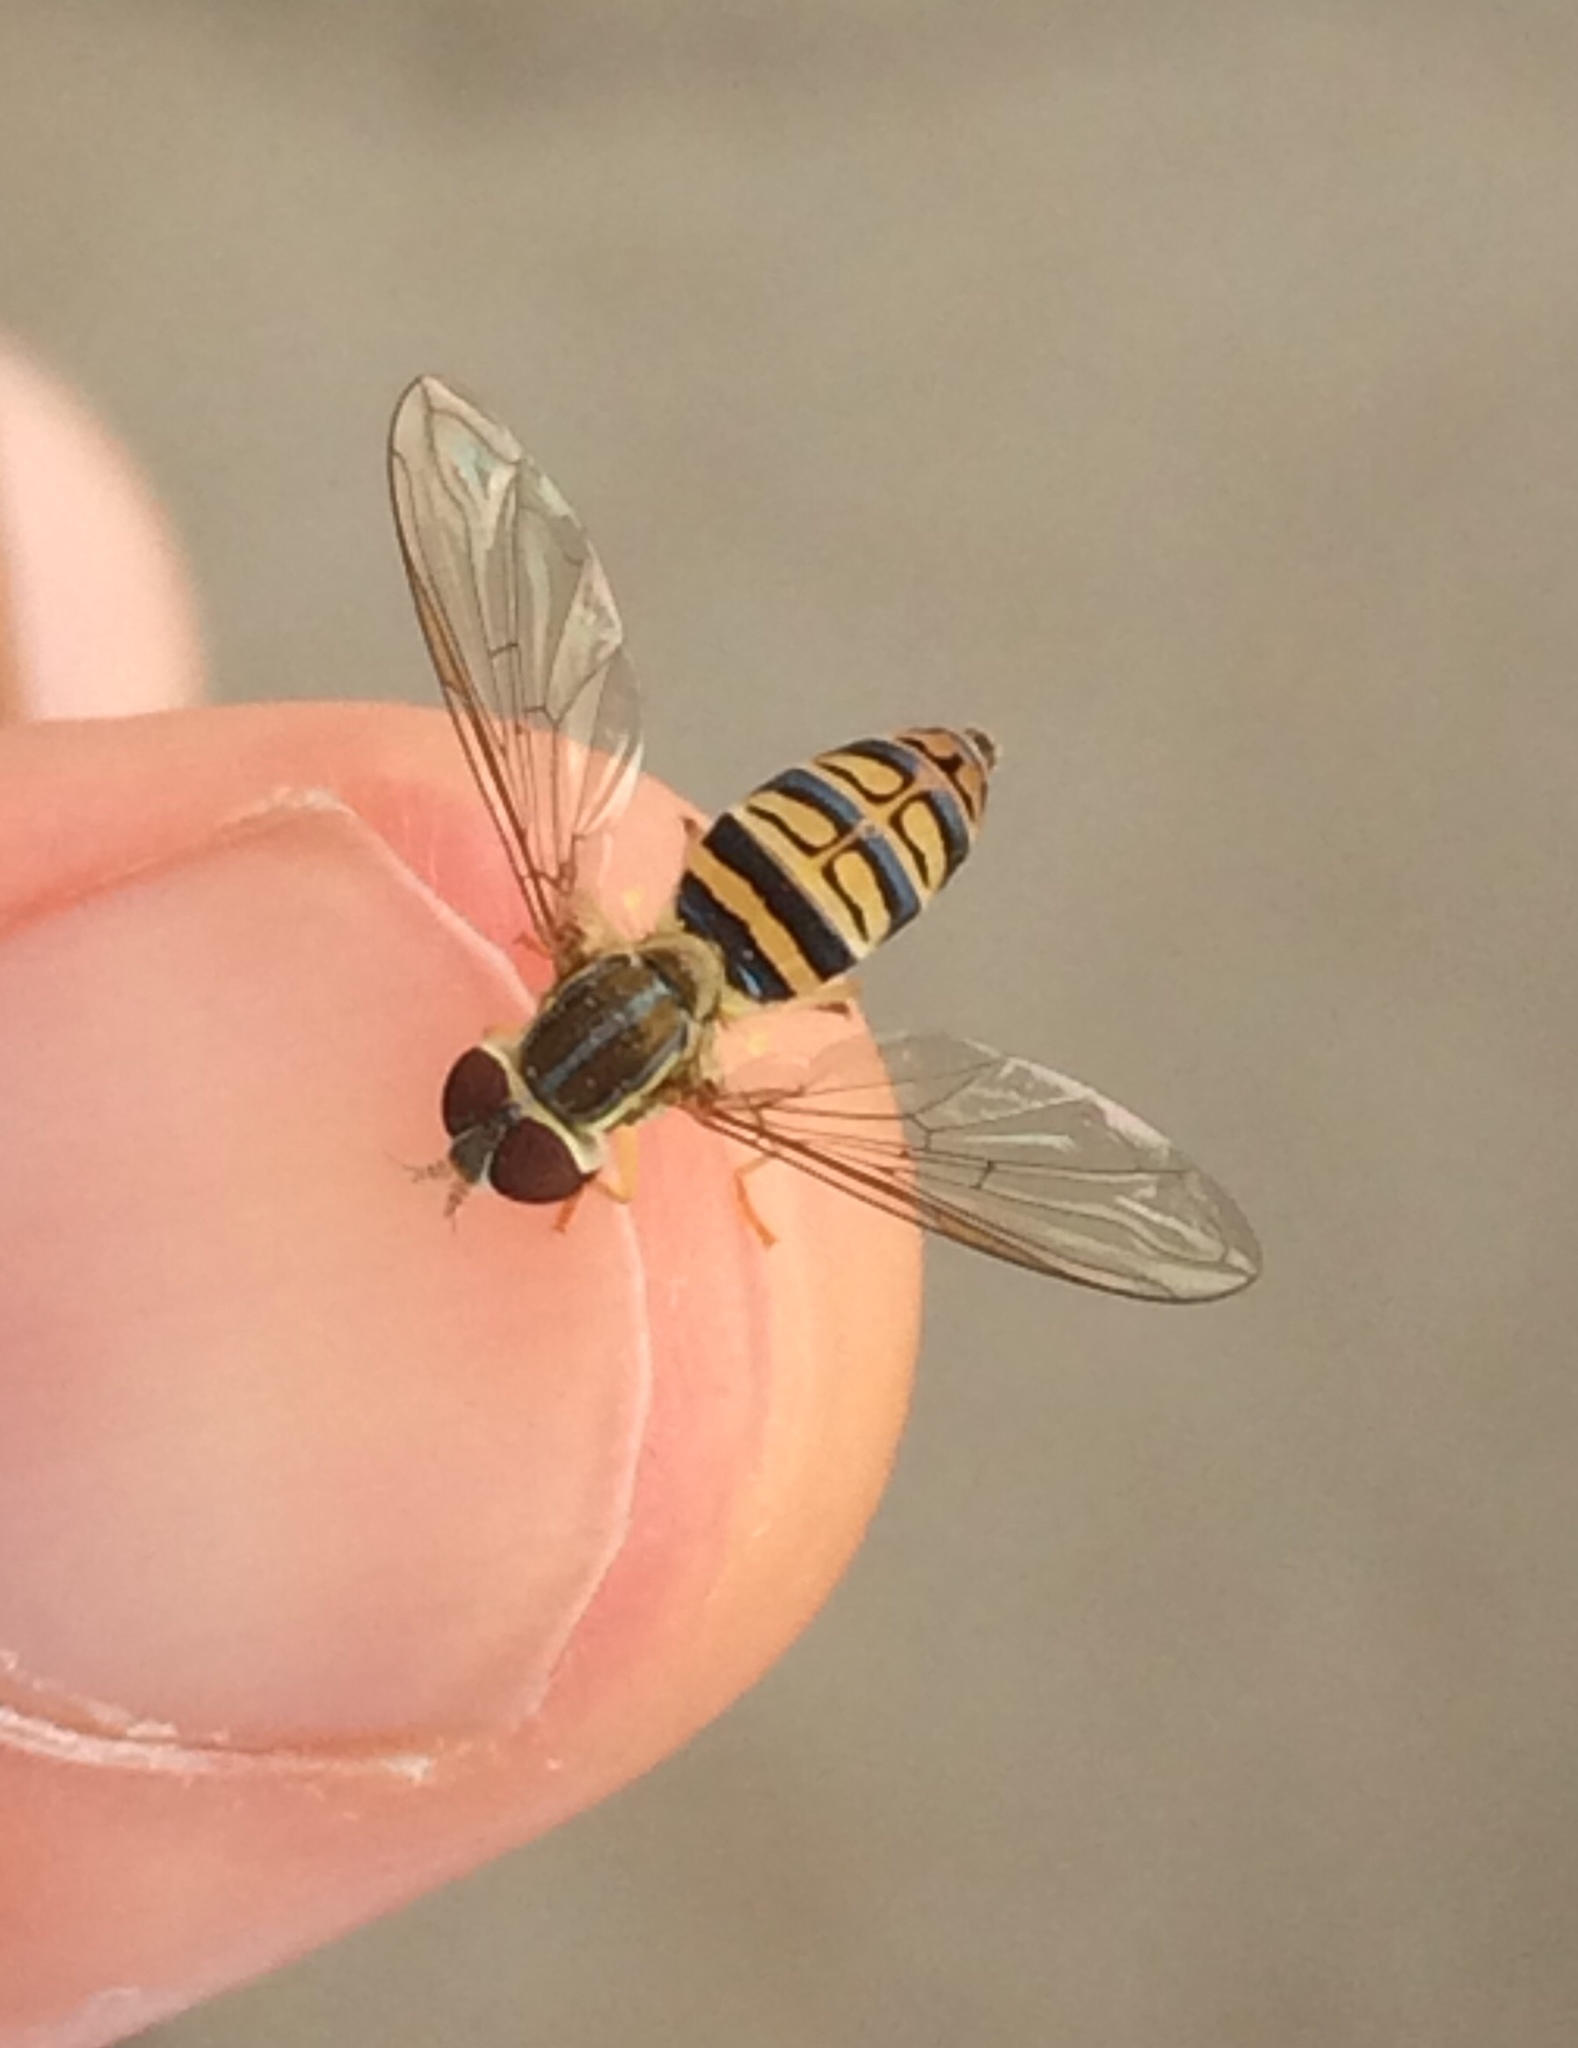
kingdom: Animalia
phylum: Arthropoda
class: Insecta
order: Diptera
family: Syrphidae
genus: Toxomerus
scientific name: Toxomerus politus
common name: Maize calligrapher
